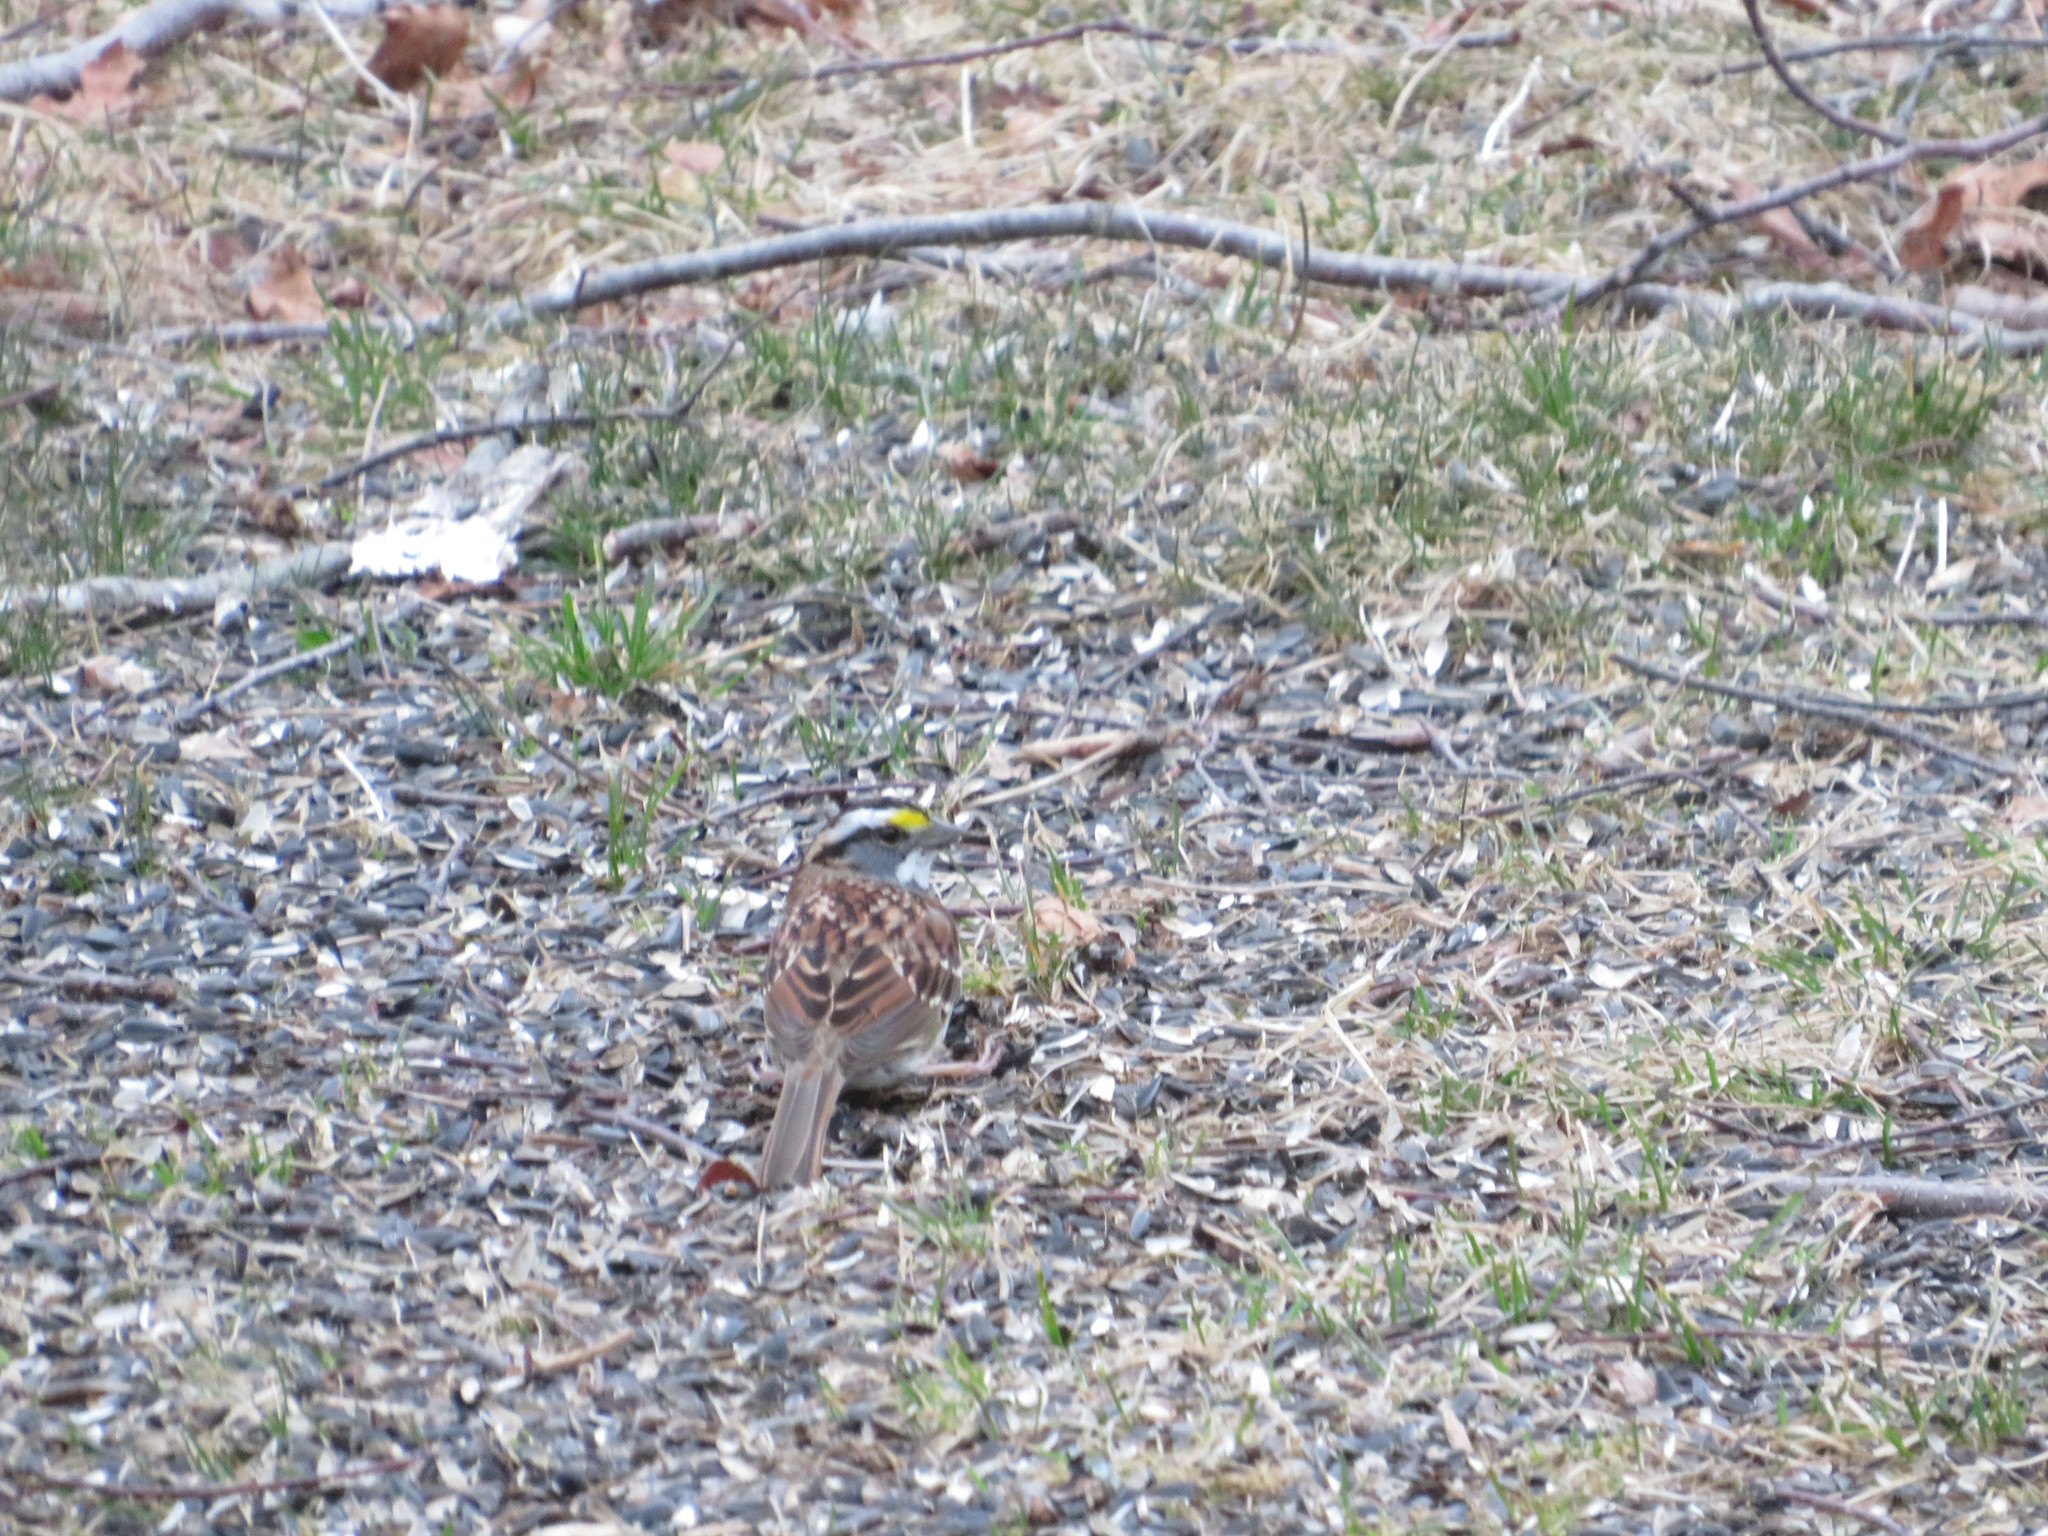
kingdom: Animalia
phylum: Chordata
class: Aves
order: Passeriformes
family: Passerellidae
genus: Zonotrichia
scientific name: Zonotrichia albicollis
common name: White-throated sparrow
